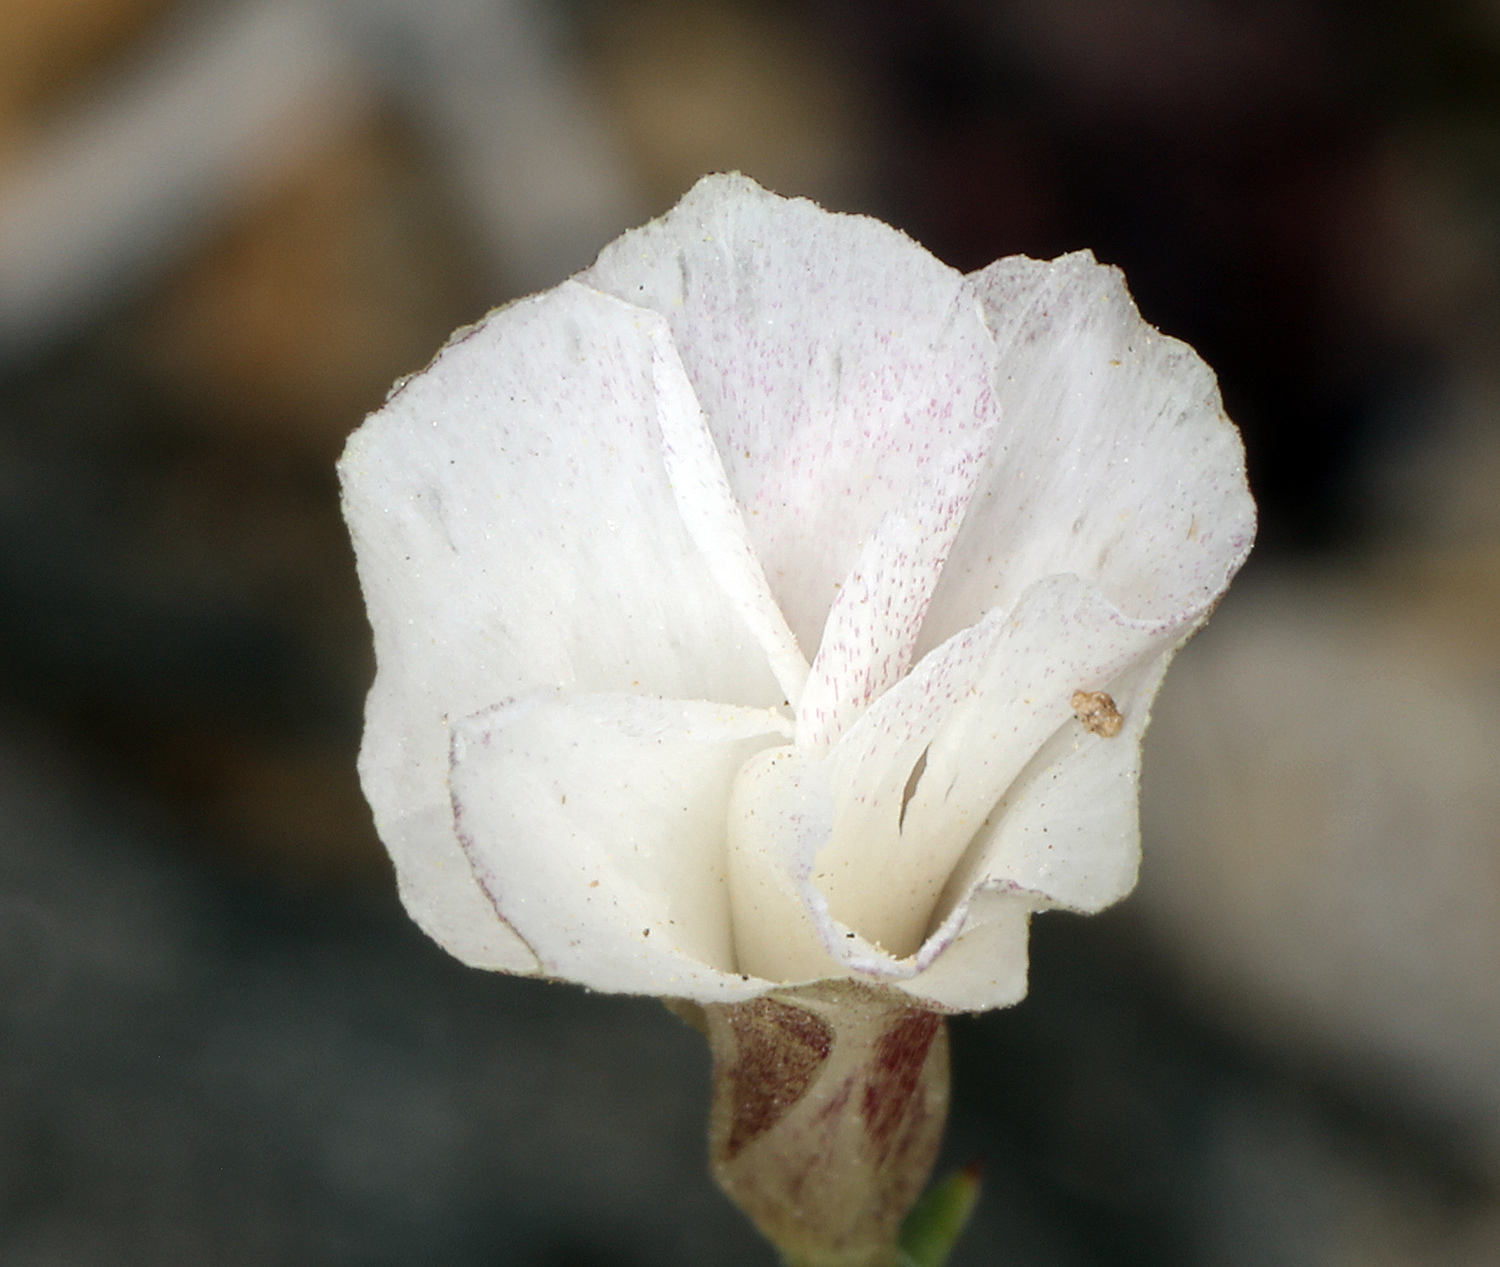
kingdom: Plantae
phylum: Tracheophyta
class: Magnoliopsida
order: Ericales
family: Polemoniaceae
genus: Linanthus
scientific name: Linanthus dichotomus
